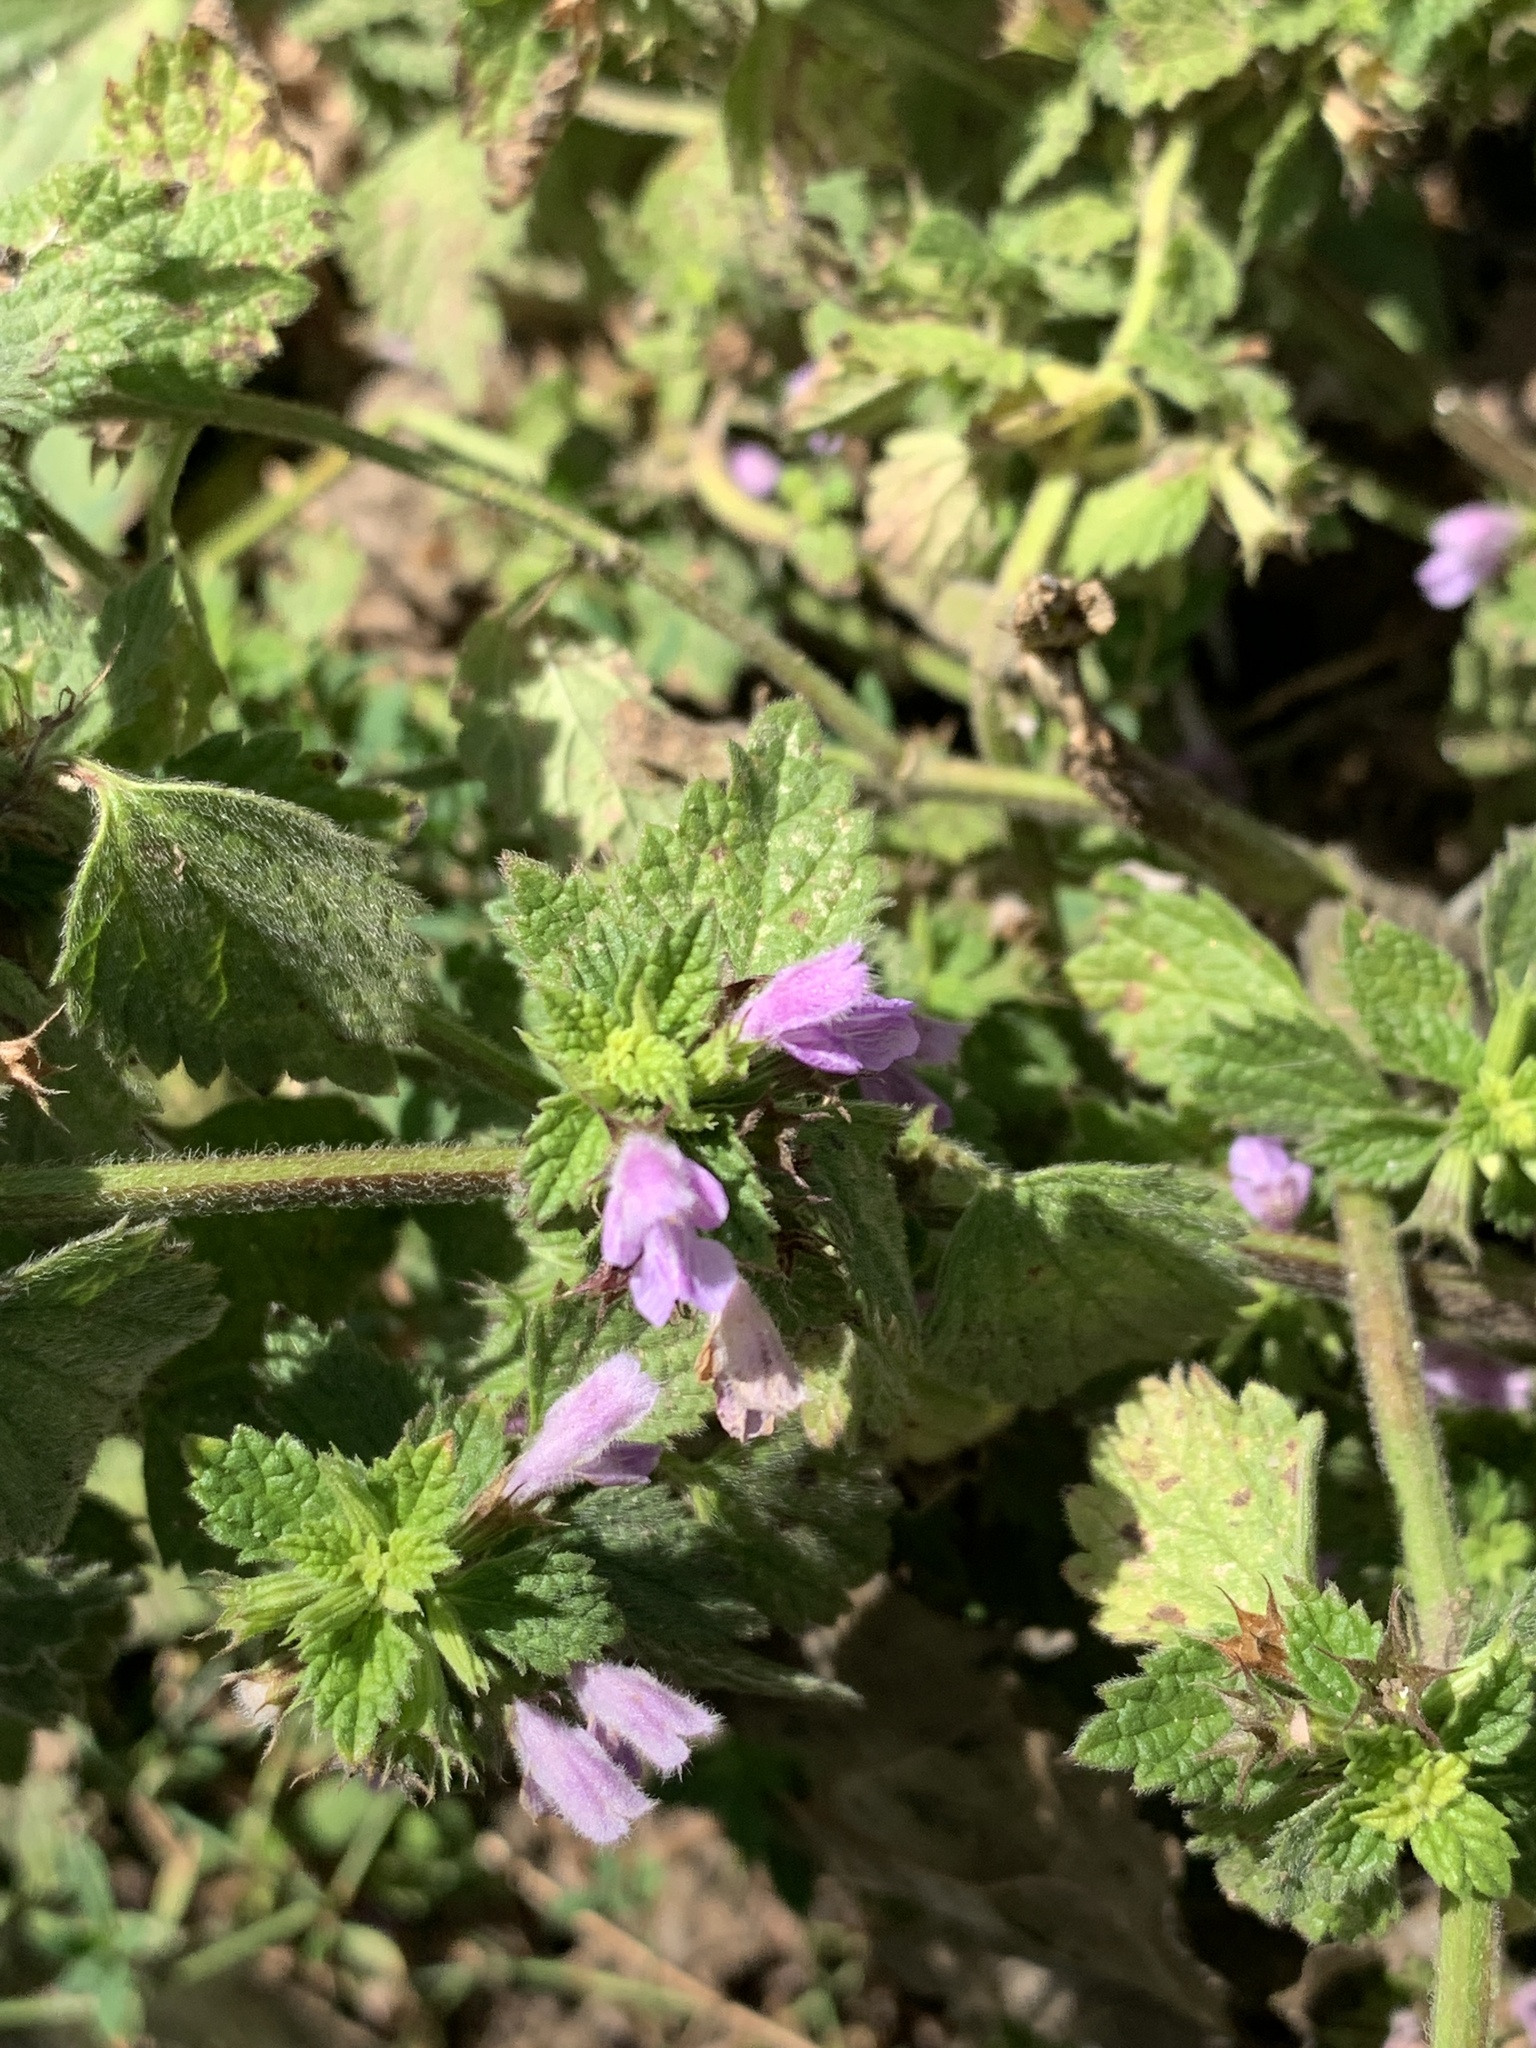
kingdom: Plantae
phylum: Tracheophyta
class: Magnoliopsida
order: Lamiales
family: Lamiaceae
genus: Ballota
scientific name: Ballota nigra
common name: Black horehound
